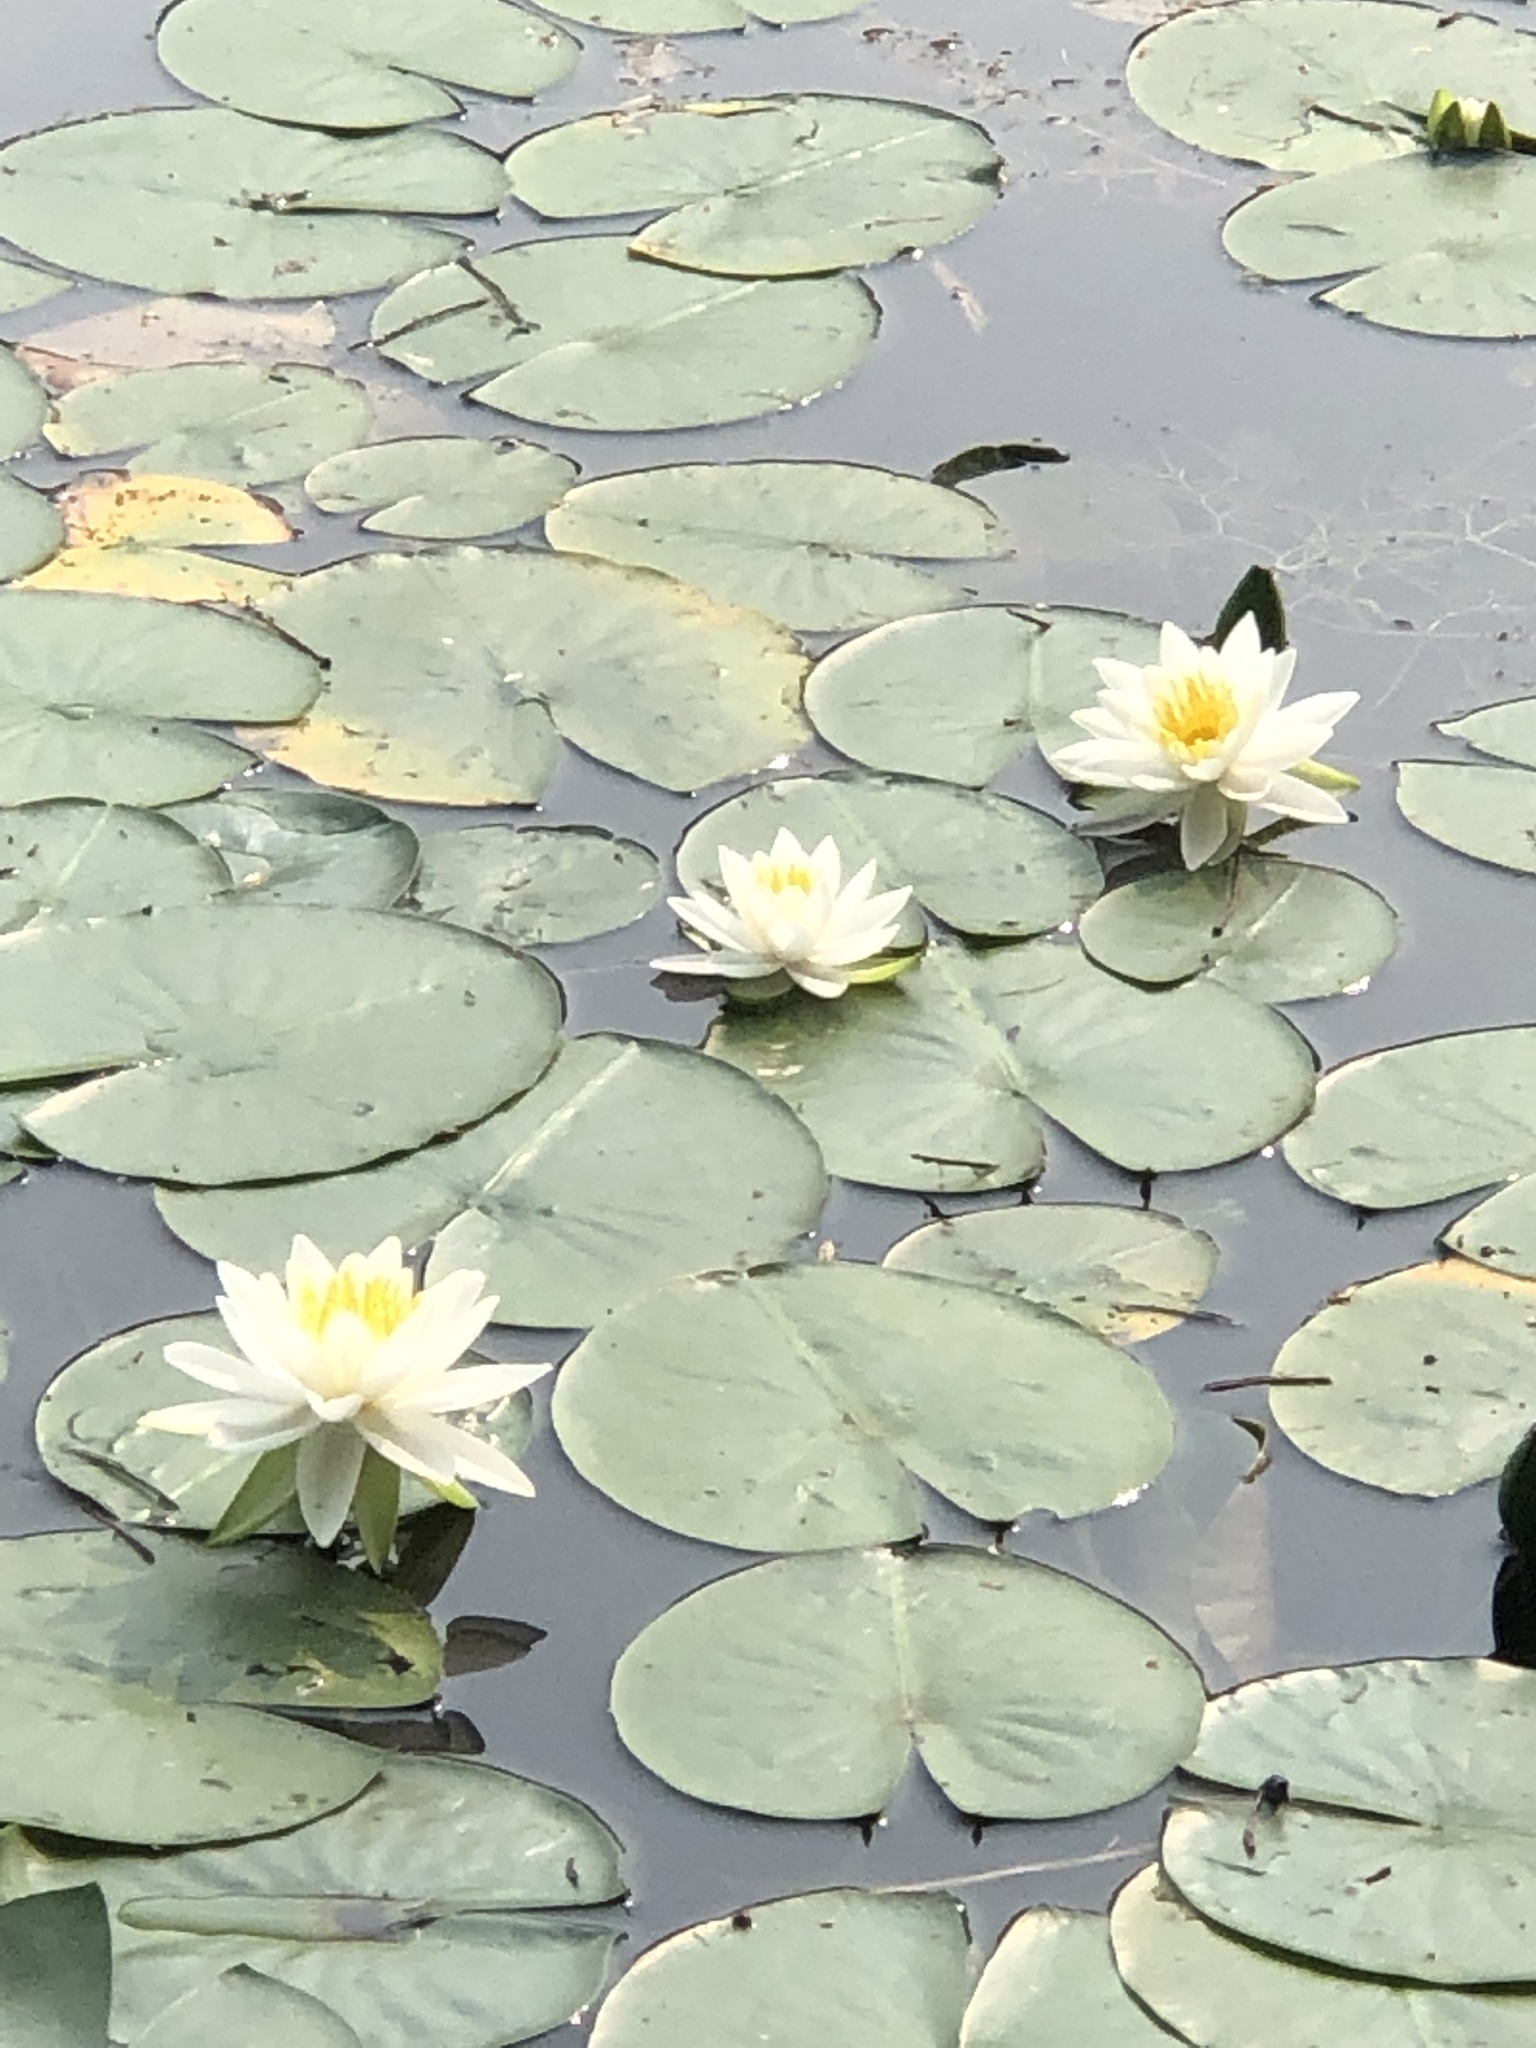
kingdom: Plantae
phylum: Tracheophyta
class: Magnoliopsida
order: Nymphaeales
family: Nymphaeaceae
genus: Nymphaea
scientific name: Nymphaea odorata
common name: Fragrant water-lily
